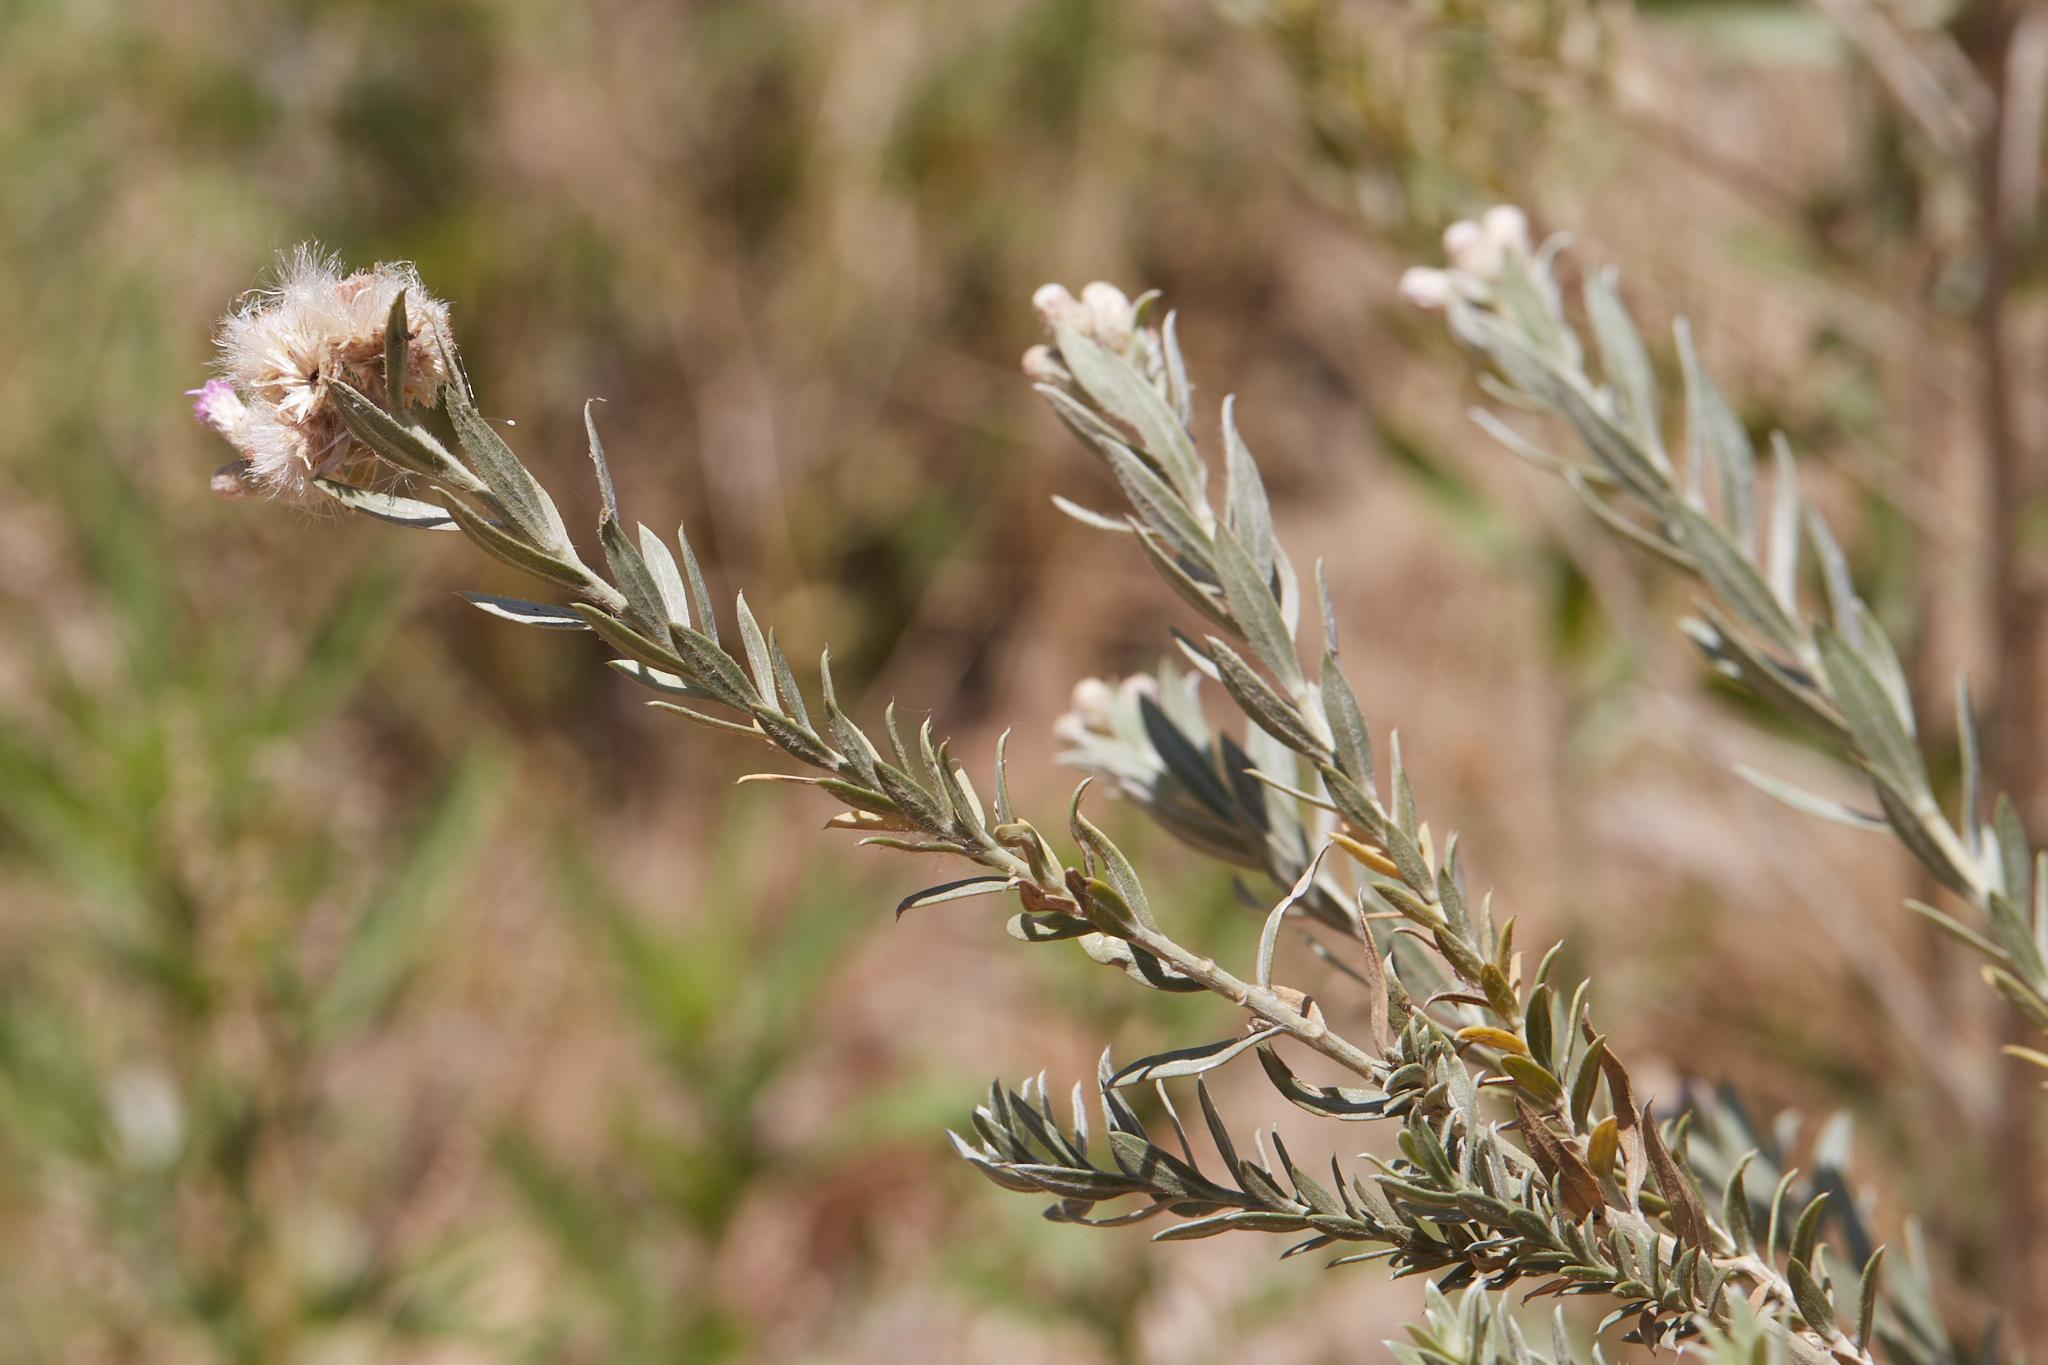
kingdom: Plantae
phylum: Tracheophyta
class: Magnoliopsida
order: Asterales
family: Asteraceae
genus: Pluchea
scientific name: Pluchea sericea
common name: Arrow-weed
